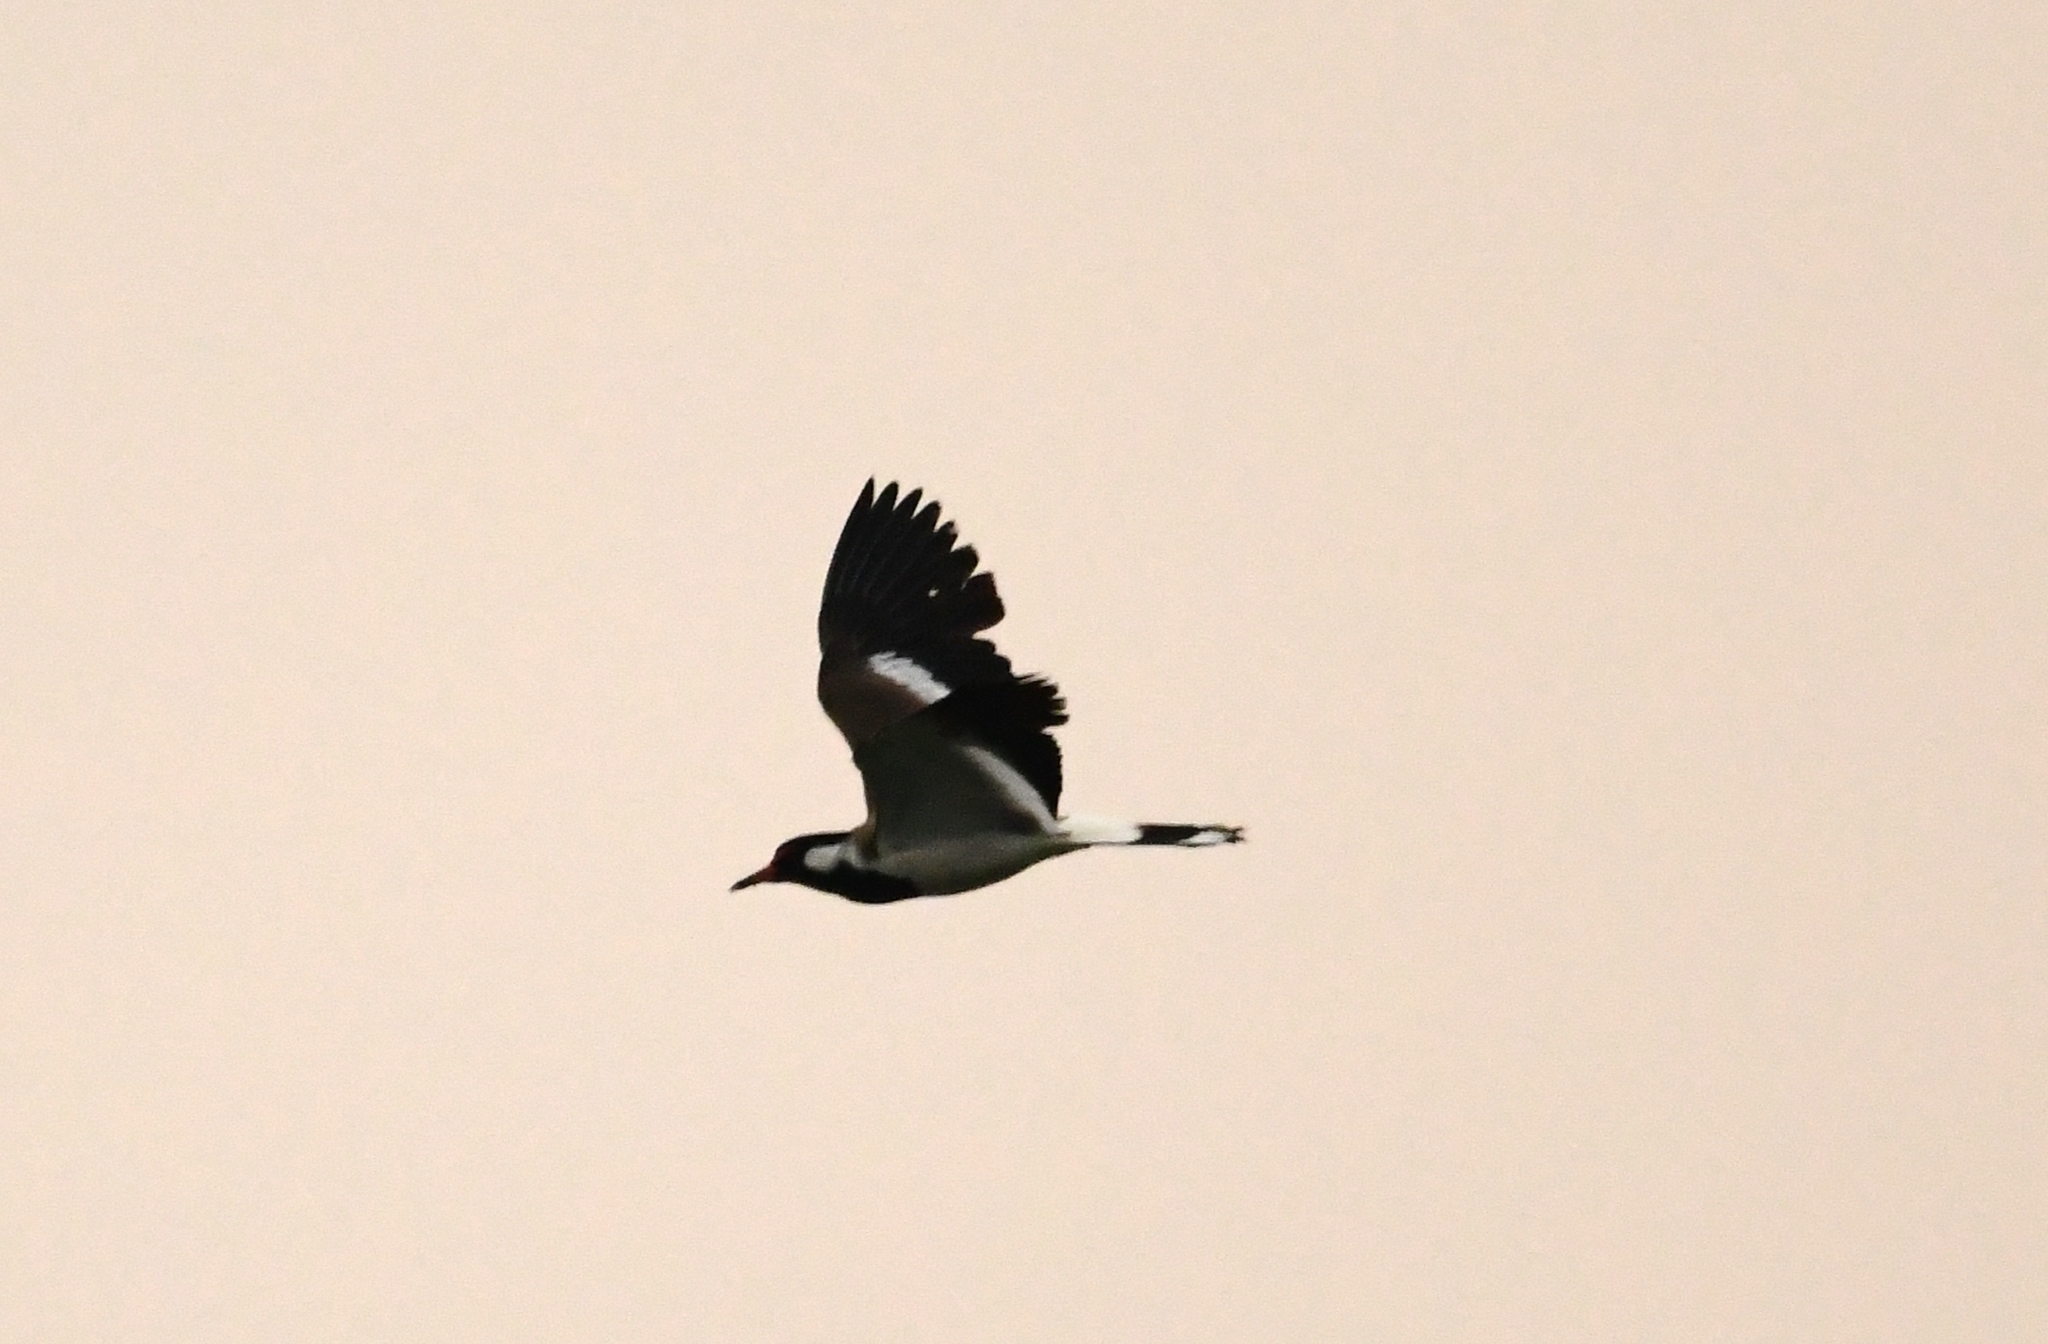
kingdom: Animalia
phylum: Chordata
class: Aves
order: Charadriiformes
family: Charadriidae
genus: Vanellus
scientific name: Vanellus indicus
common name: Red-wattled lapwing
